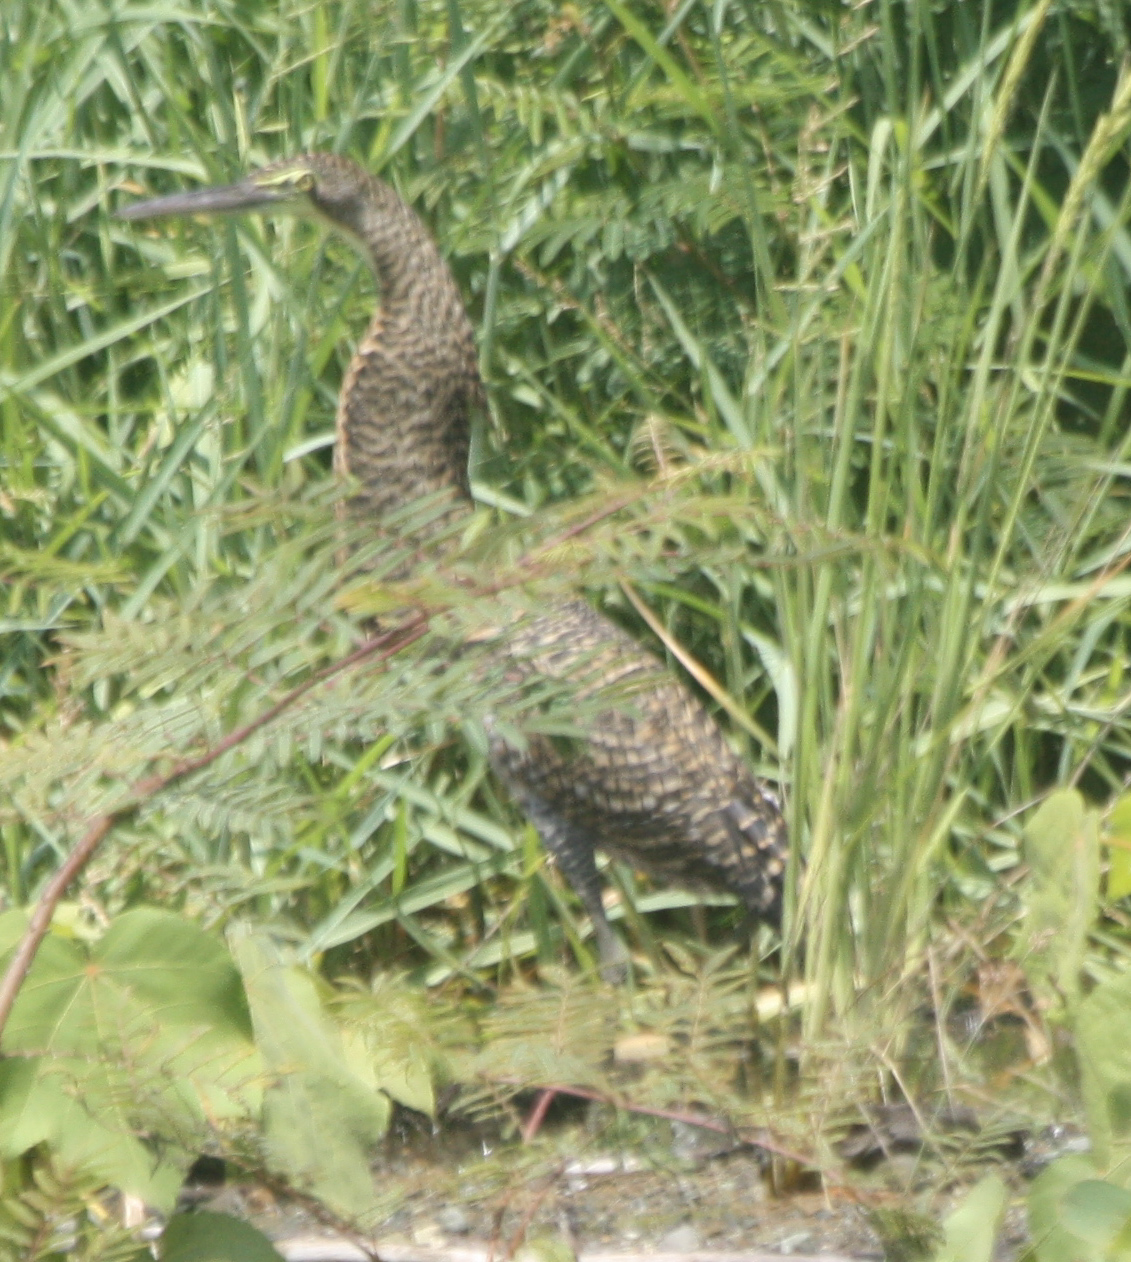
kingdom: Animalia
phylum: Chordata
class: Aves
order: Pelecaniformes
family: Ardeidae
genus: Tigrisoma
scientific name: Tigrisoma mexicanum
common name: Bare-throated tiger-heron
